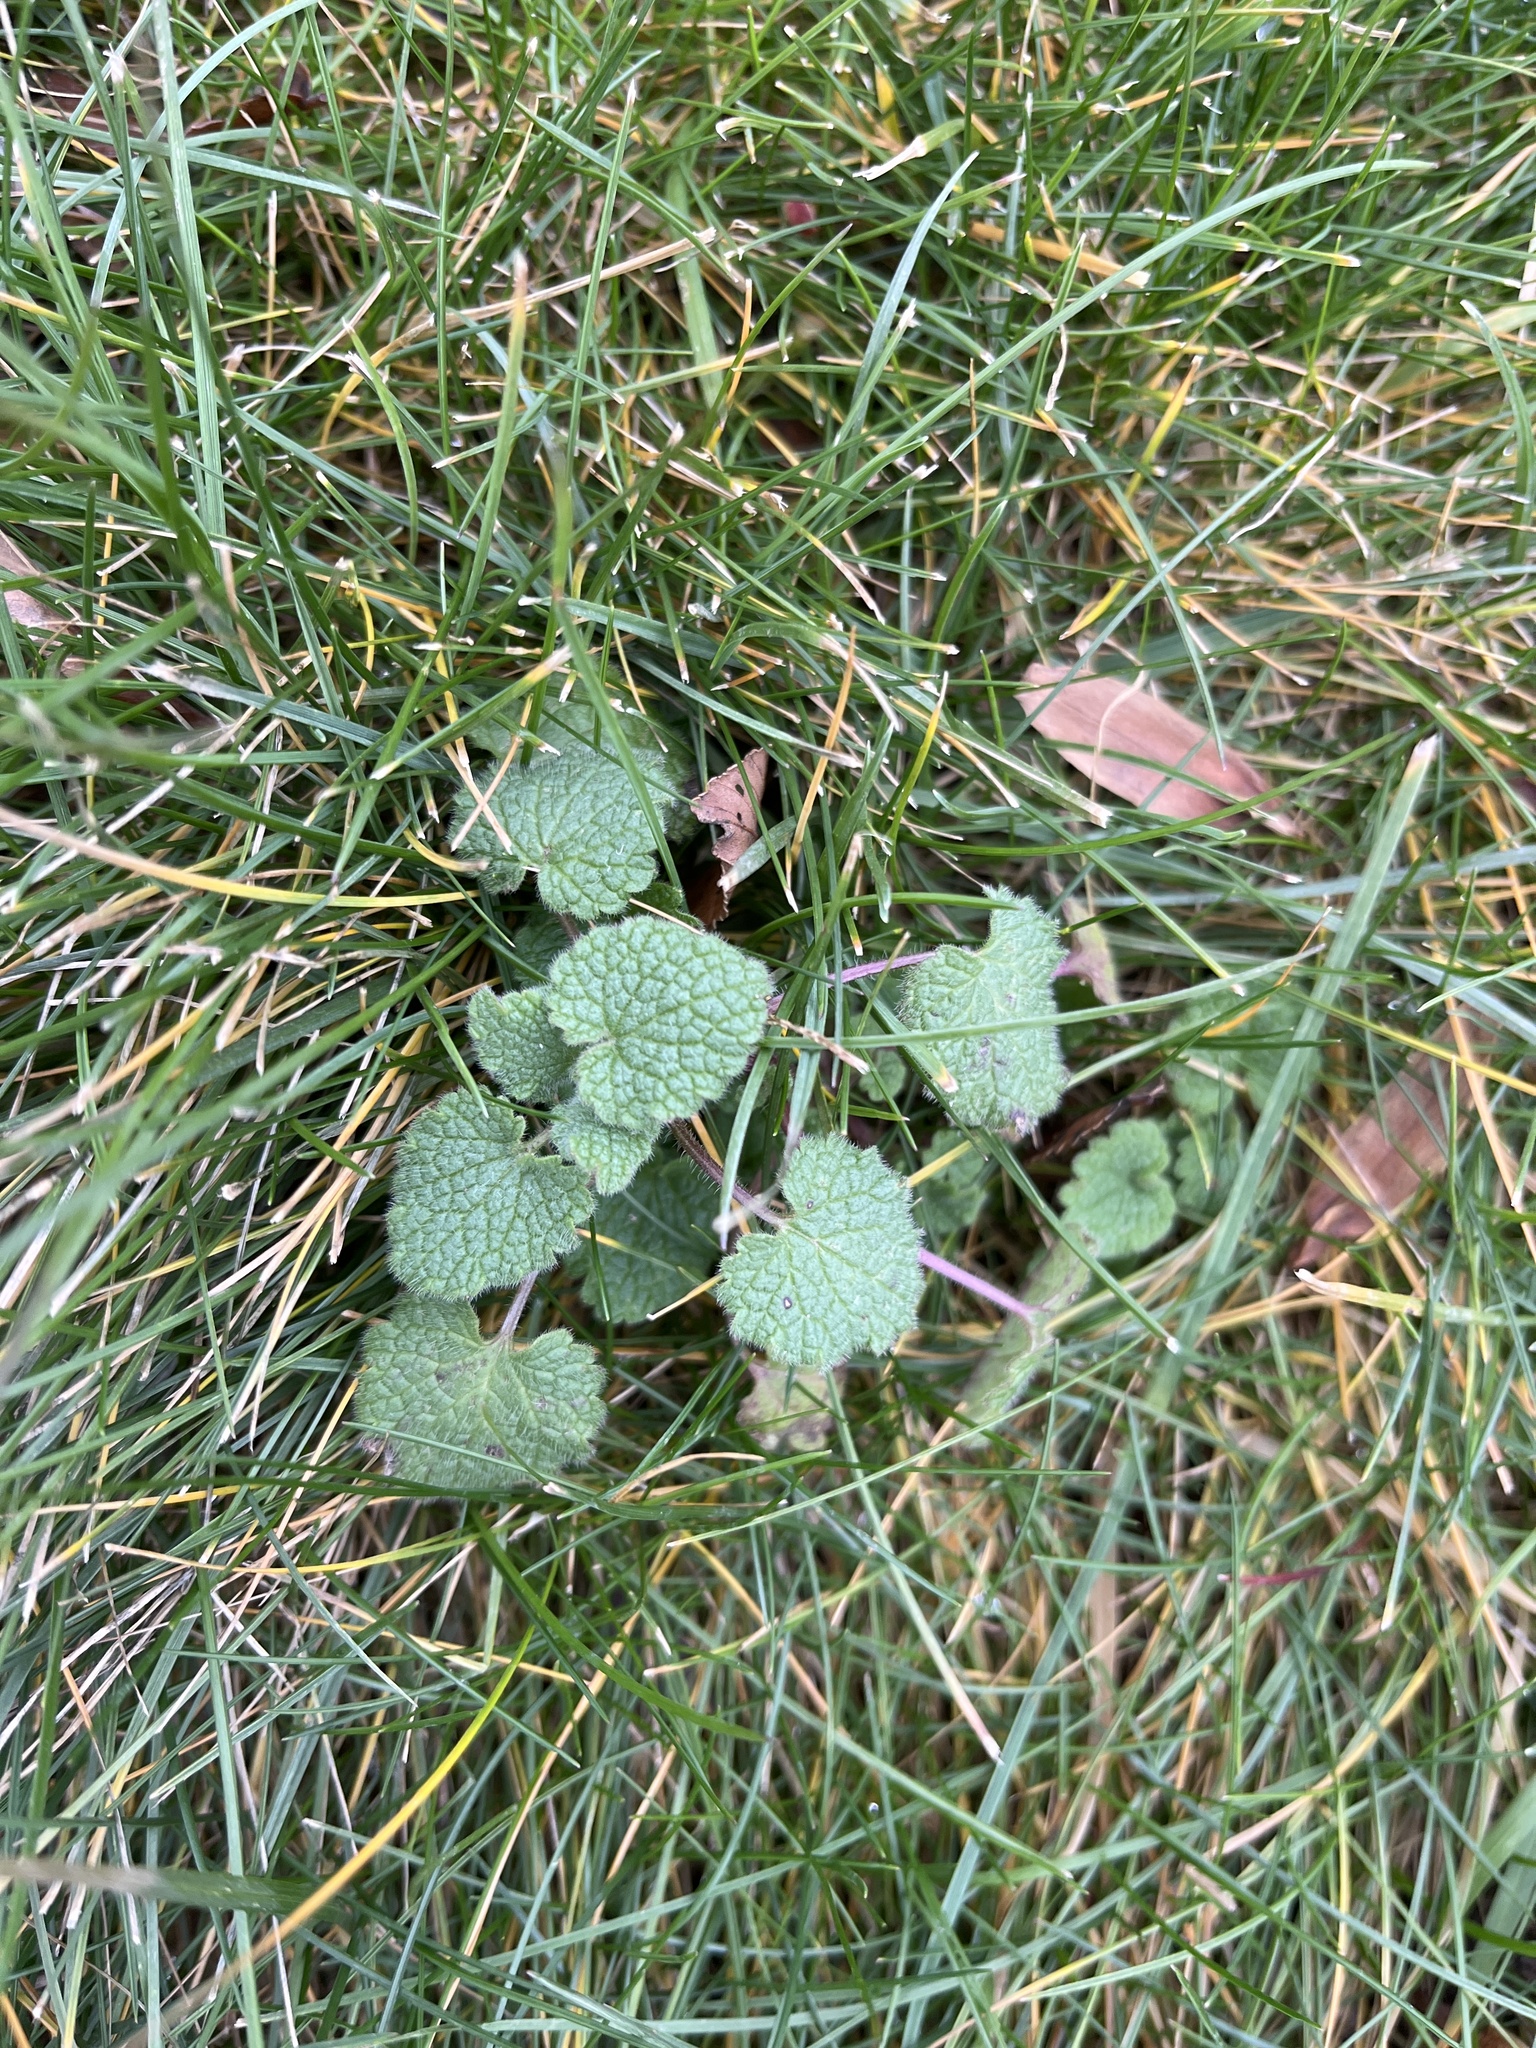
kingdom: Plantae
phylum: Tracheophyta
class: Magnoliopsida
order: Lamiales
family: Lamiaceae
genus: Lamium
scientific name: Lamium purpureum
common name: Red dead-nettle
